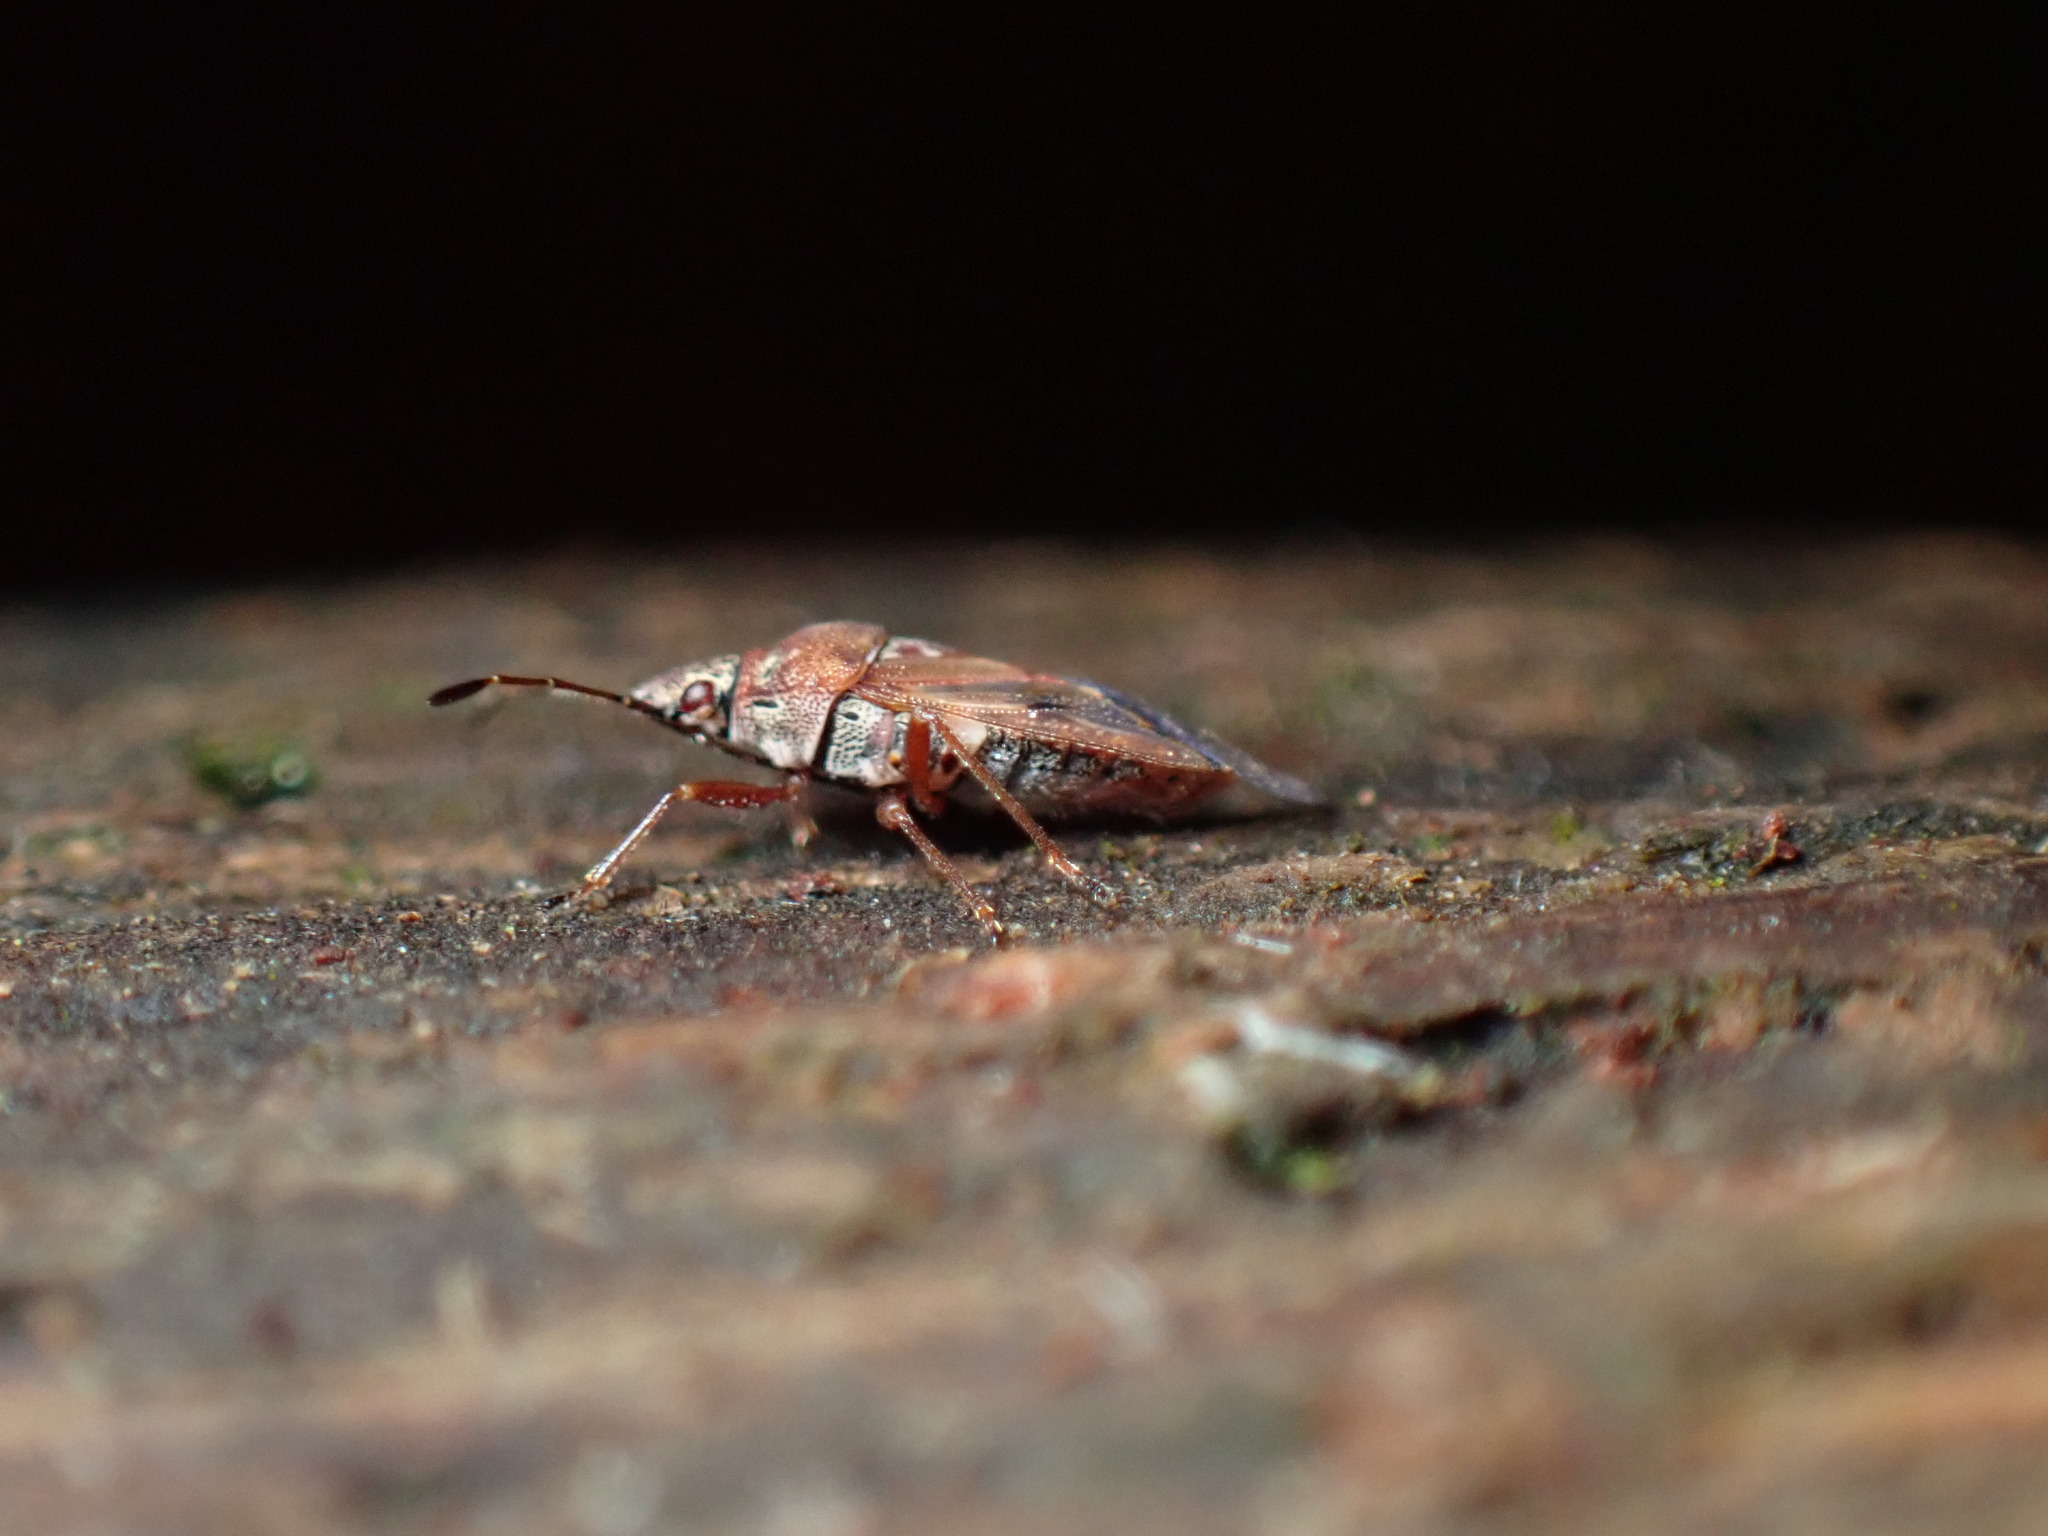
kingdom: Animalia
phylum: Arthropoda
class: Insecta
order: Hemiptera
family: Lygaeidae
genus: Kleidocerys
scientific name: Kleidocerys resedae
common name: Birch catkin bug
